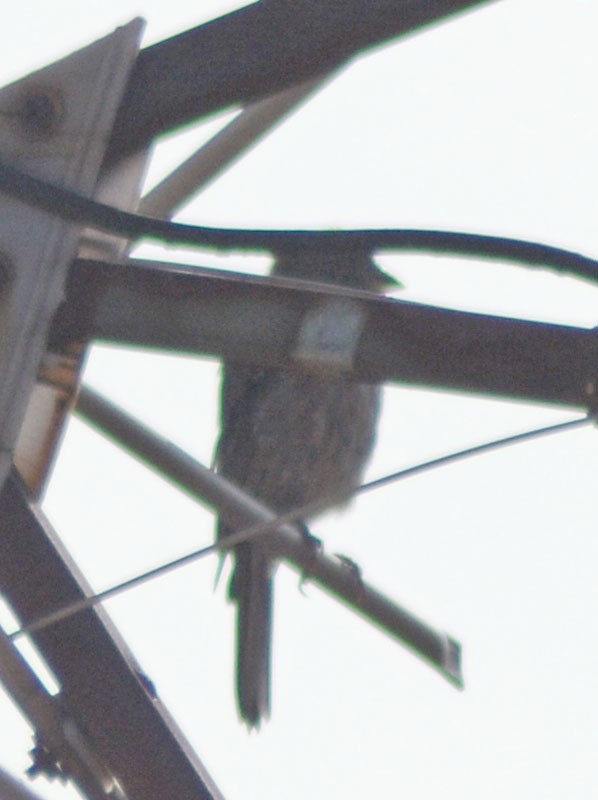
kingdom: Animalia
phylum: Chordata
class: Aves
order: Passeriformes
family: Fringillidae
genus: Haemorhous
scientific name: Haemorhous mexicanus
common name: House finch
